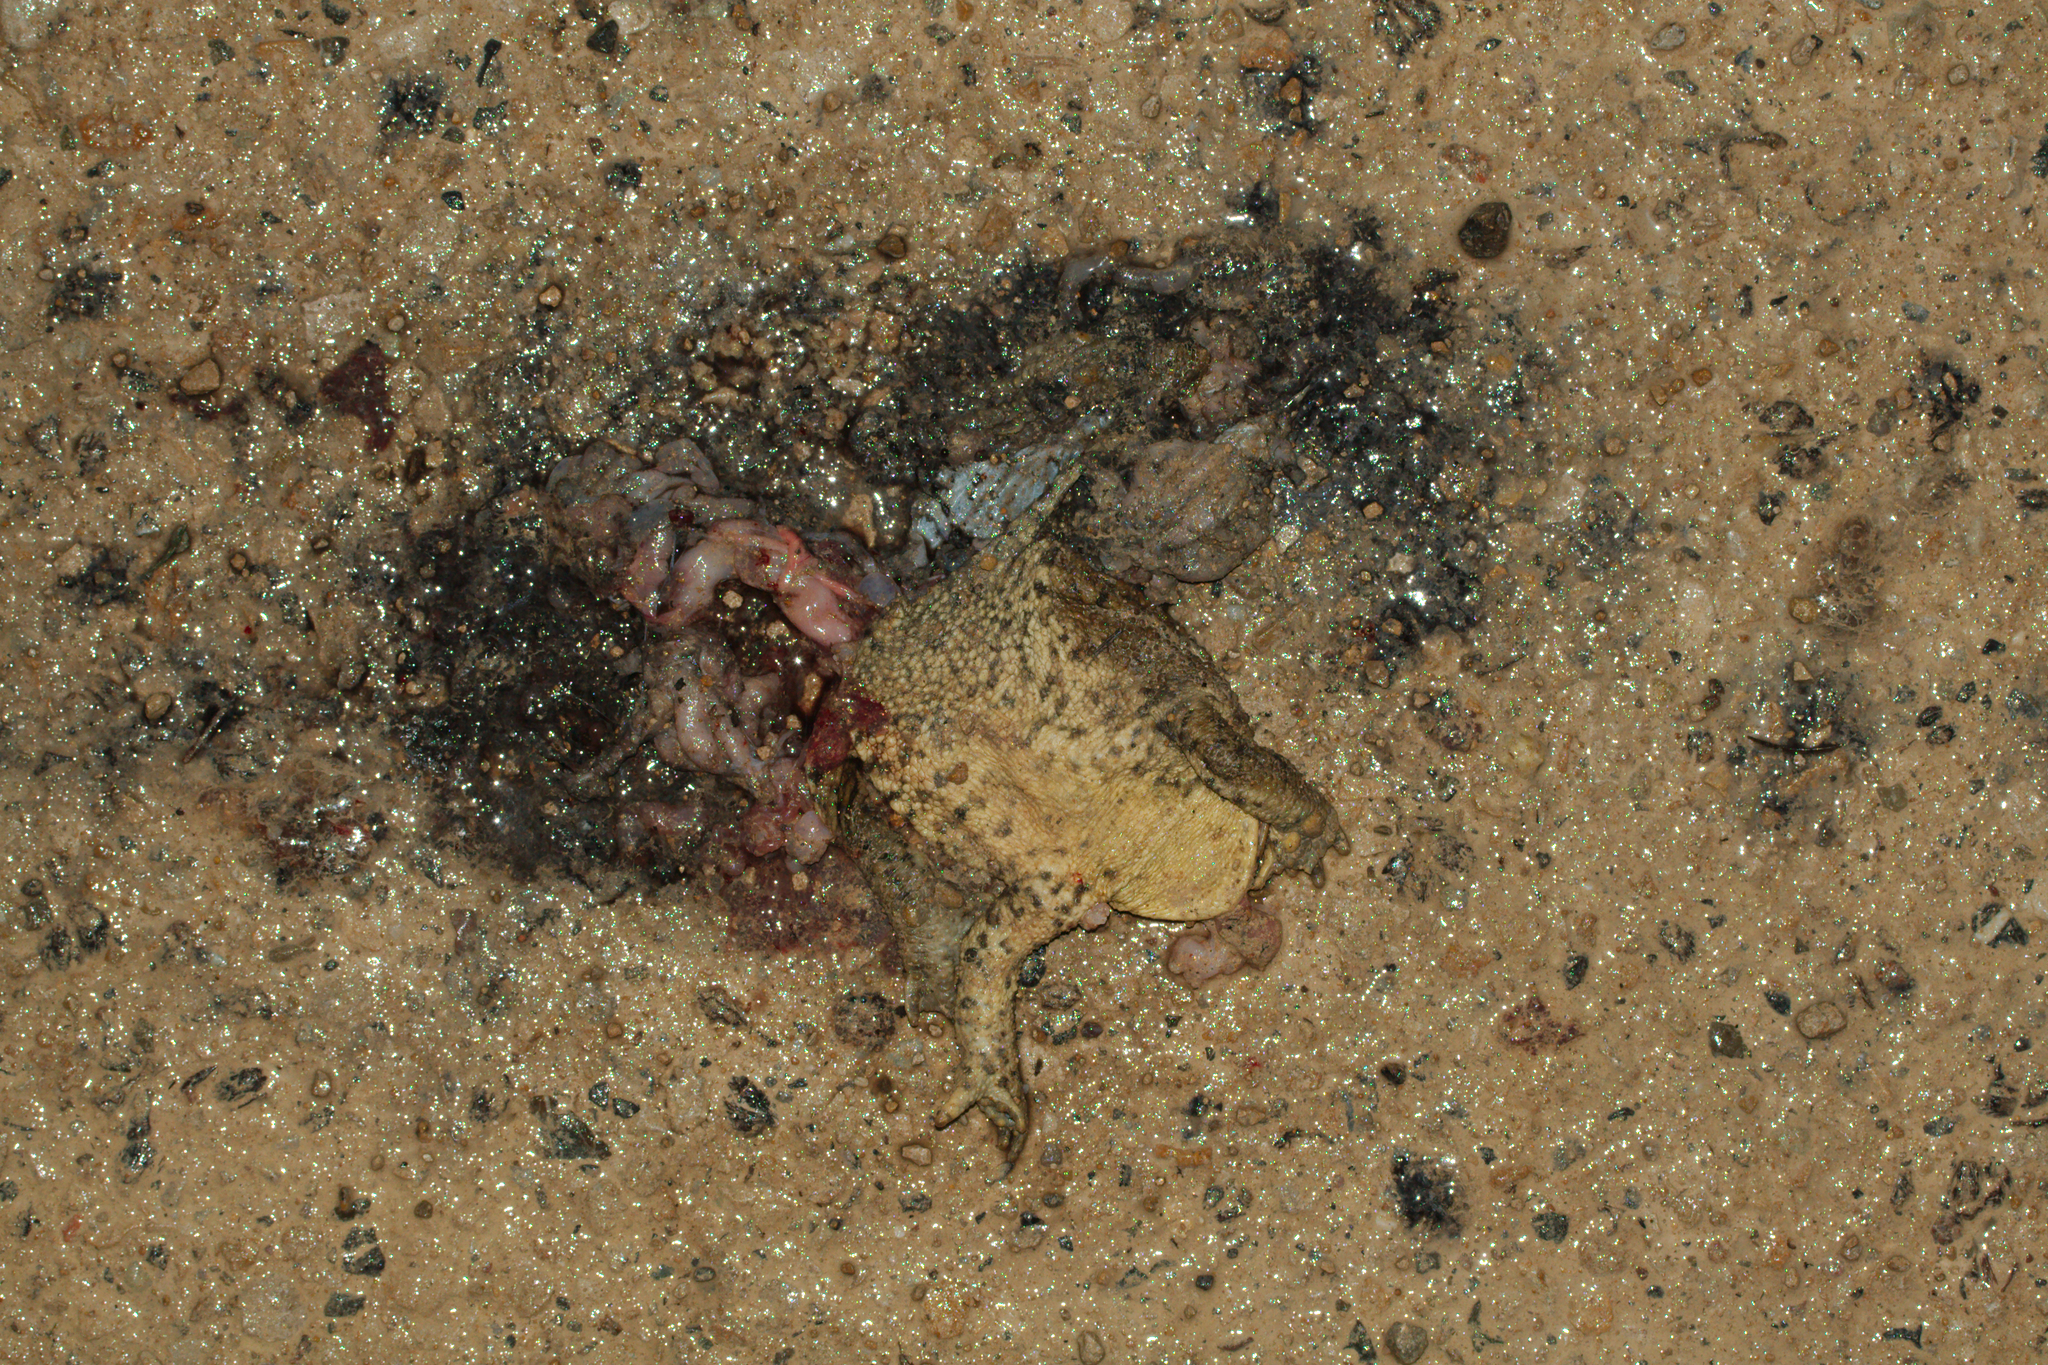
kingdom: Animalia
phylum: Chordata
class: Amphibia
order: Anura
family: Bufonidae
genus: Bufo
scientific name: Bufo bufo
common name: Common toad
